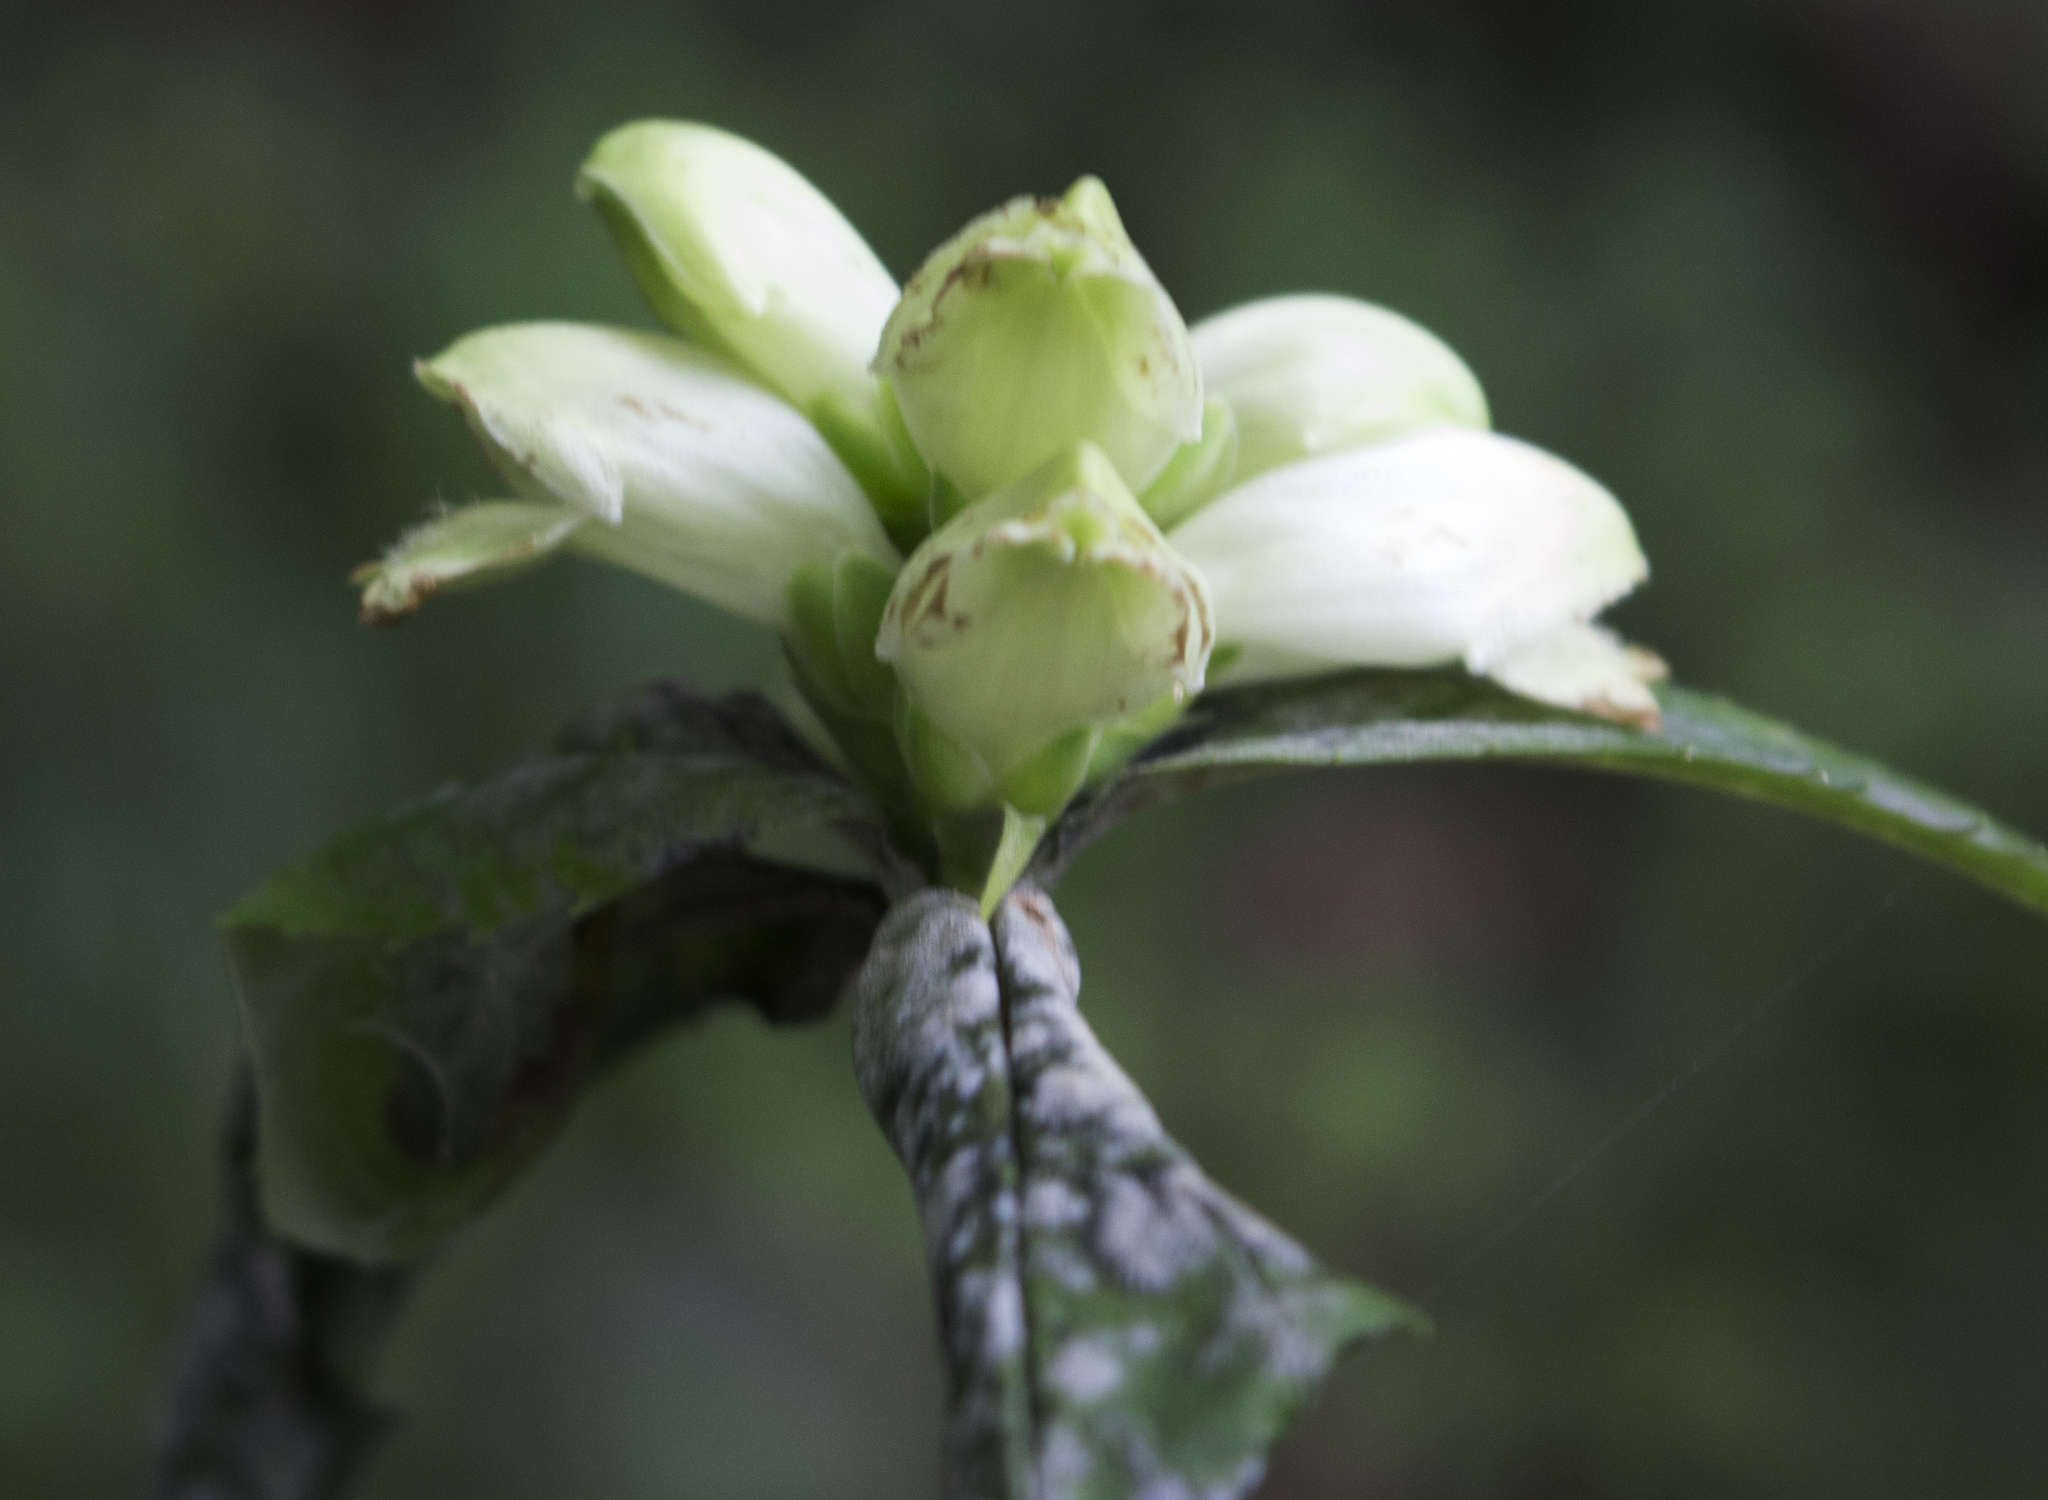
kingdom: Plantae
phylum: Tracheophyta
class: Magnoliopsida
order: Lamiales
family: Plantaginaceae
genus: Chelone
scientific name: Chelone glabra
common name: Snakehead
